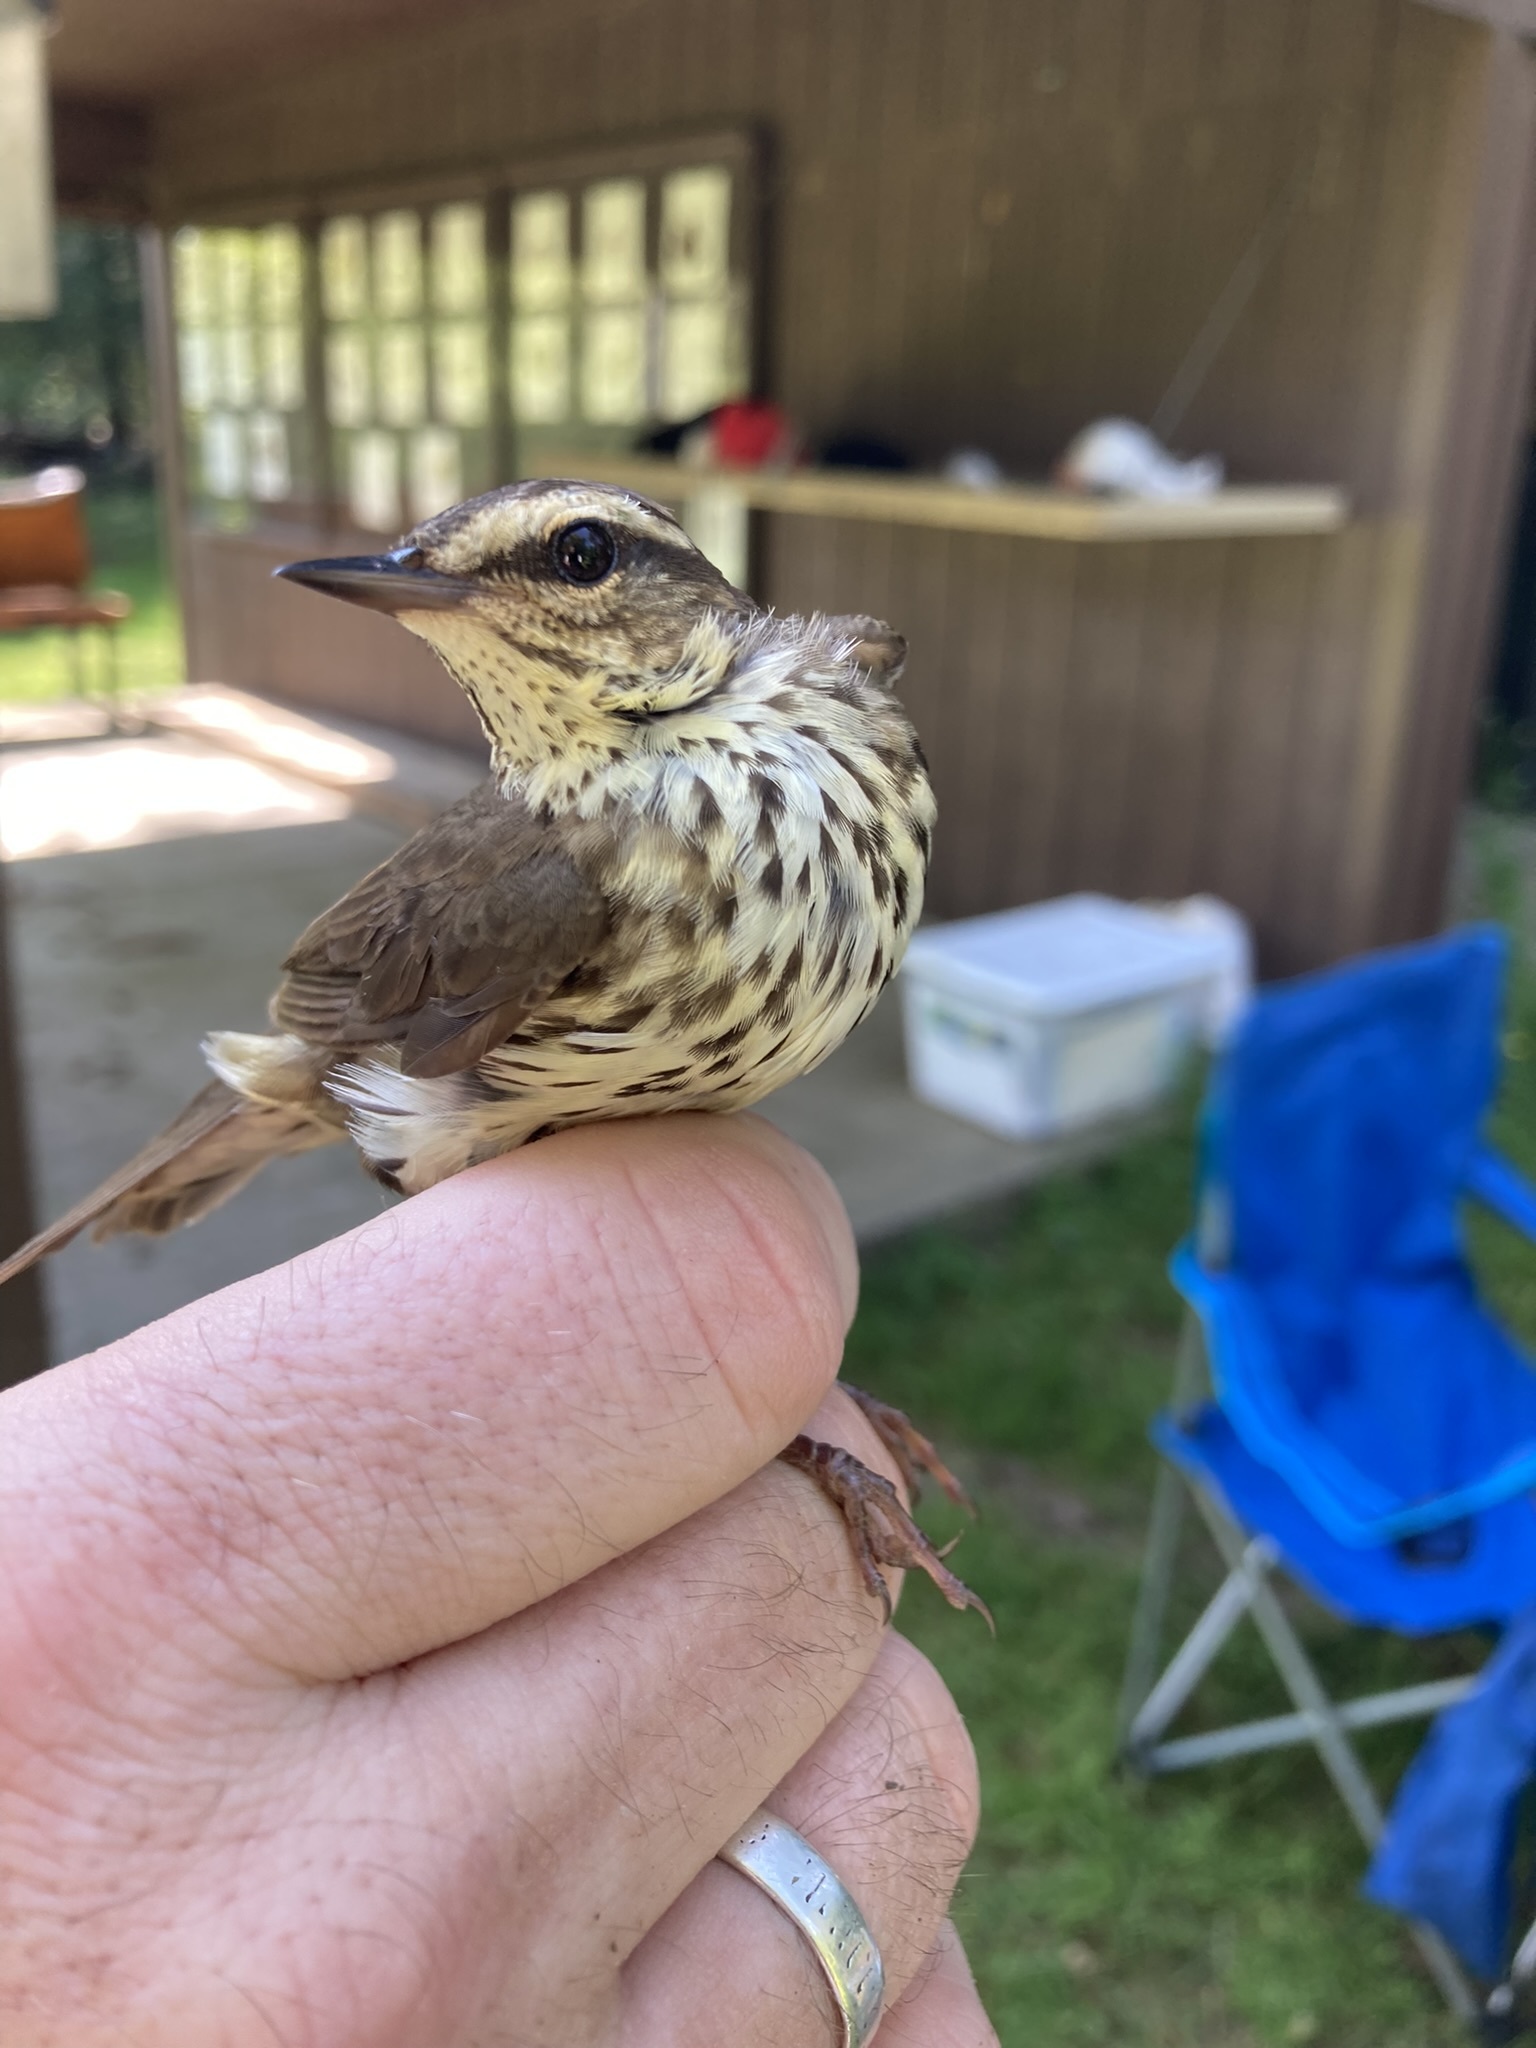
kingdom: Animalia
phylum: Chordata
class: Aves
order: Passeriformes
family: Parulidae
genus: Parkesia
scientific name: Parkesia noveboracensis
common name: Northern waterthrush
